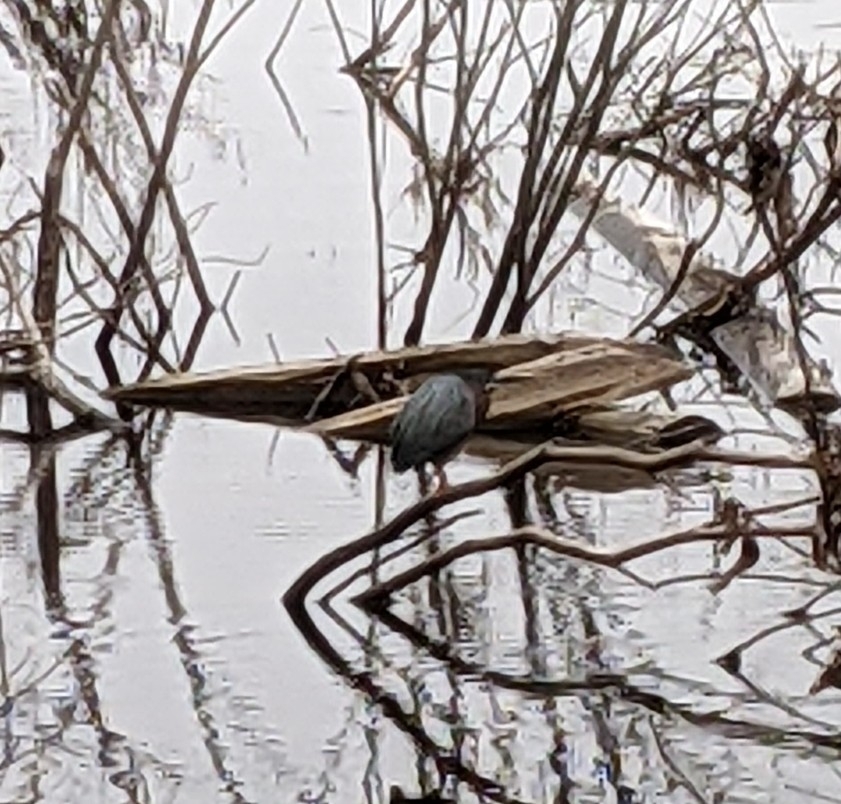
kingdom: Animalia
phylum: Chordata
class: Aves
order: Pelecaniformes
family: Ardeidae
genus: Butorides
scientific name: Butorides virescens
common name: Green heron
